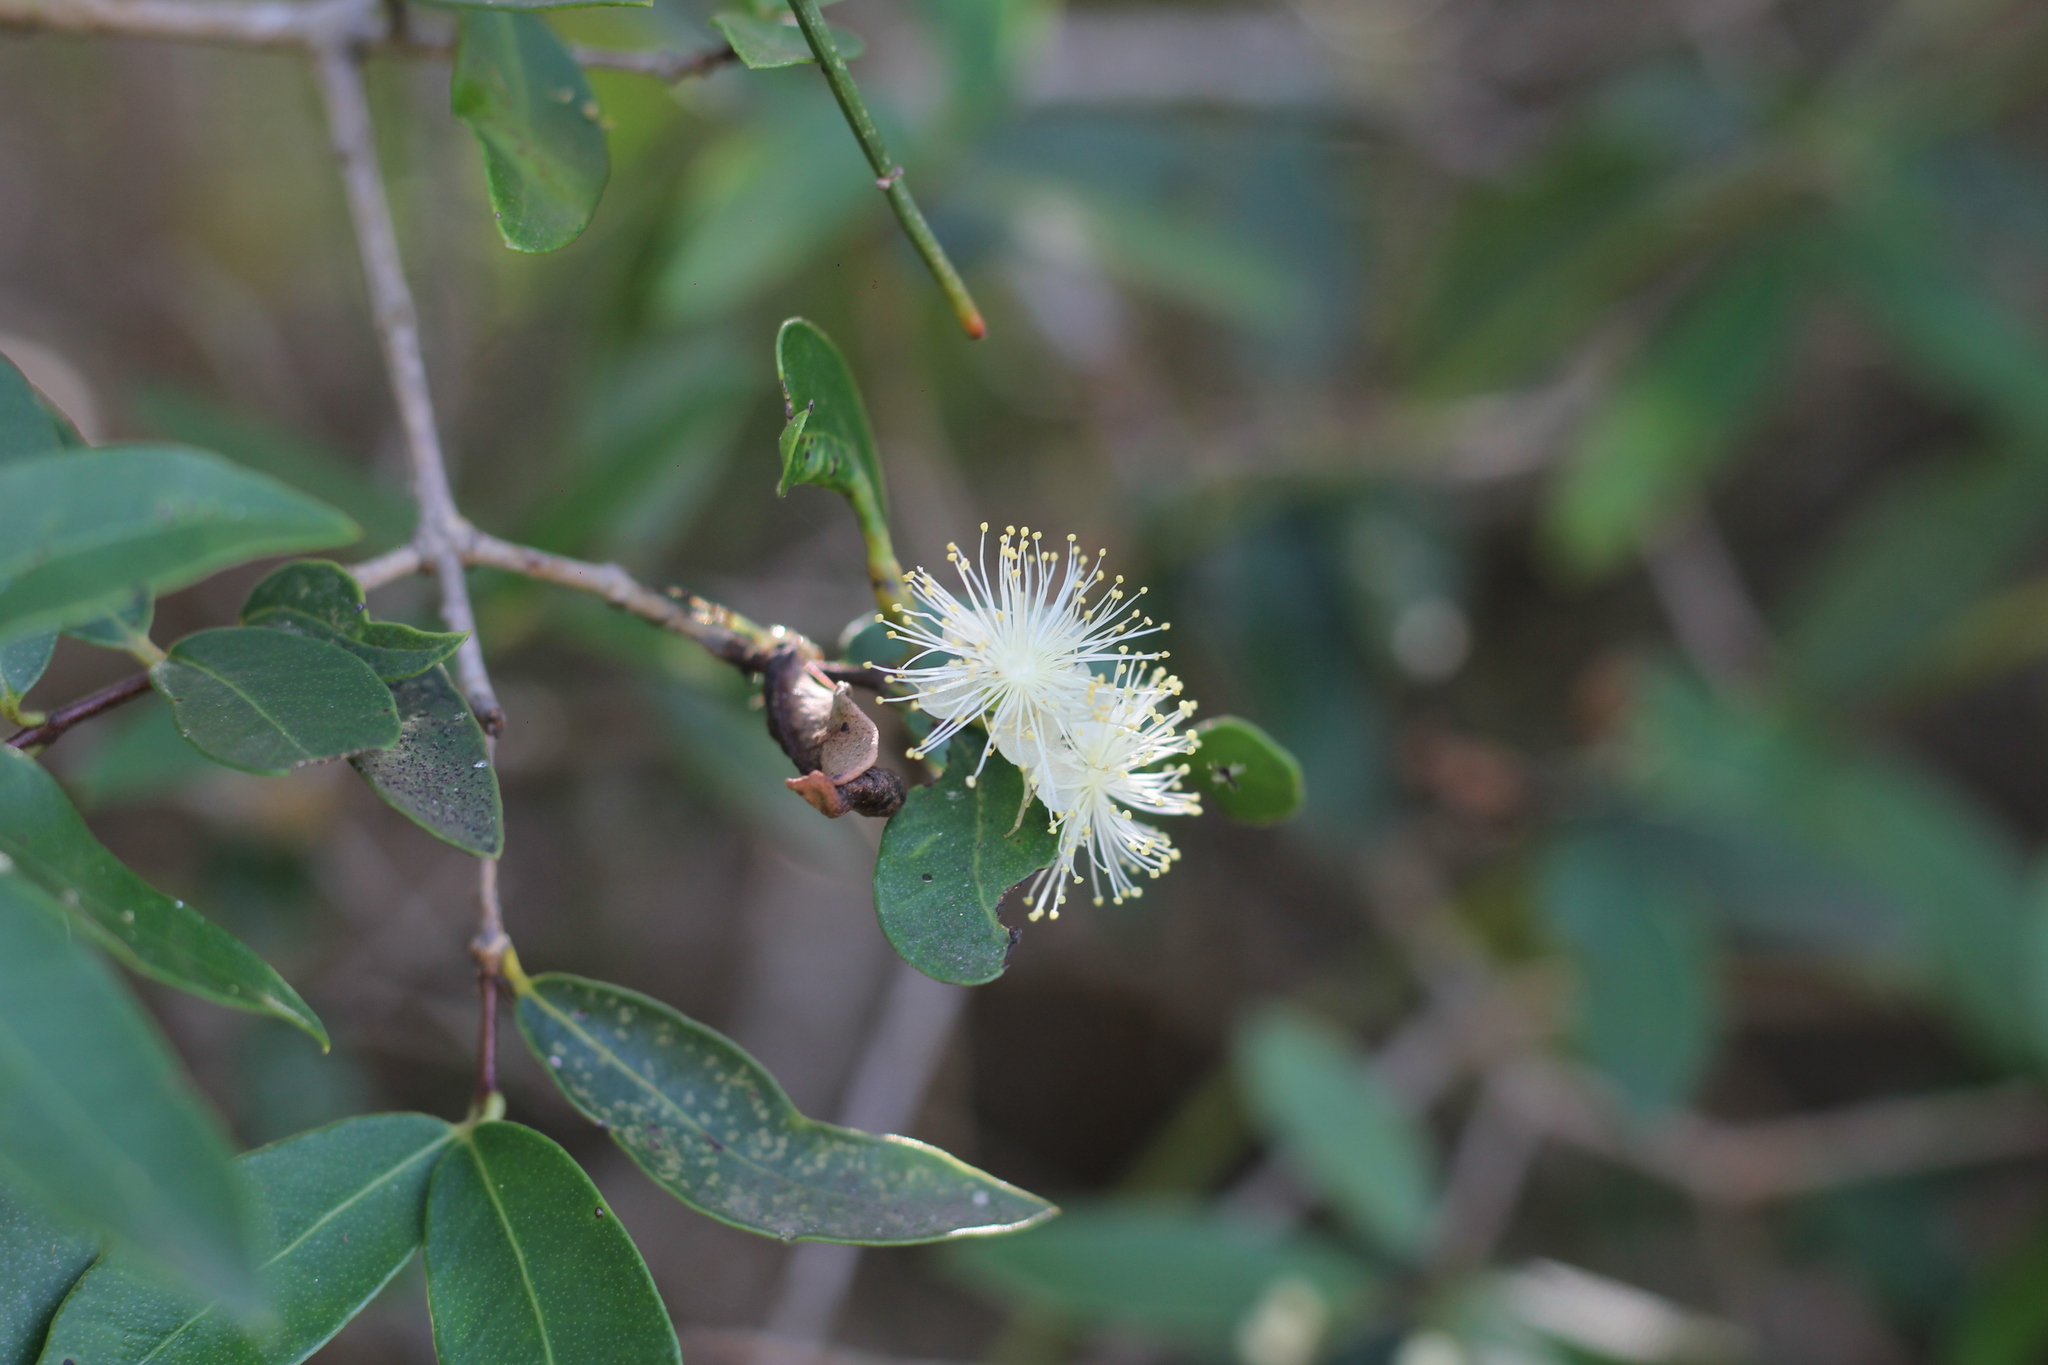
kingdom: Plantae
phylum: Tracheophyta
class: Magnoliopsida
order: Myrtales
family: Myrtaceae
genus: Myrcianthes
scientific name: Myrcianthes cisplatensis
